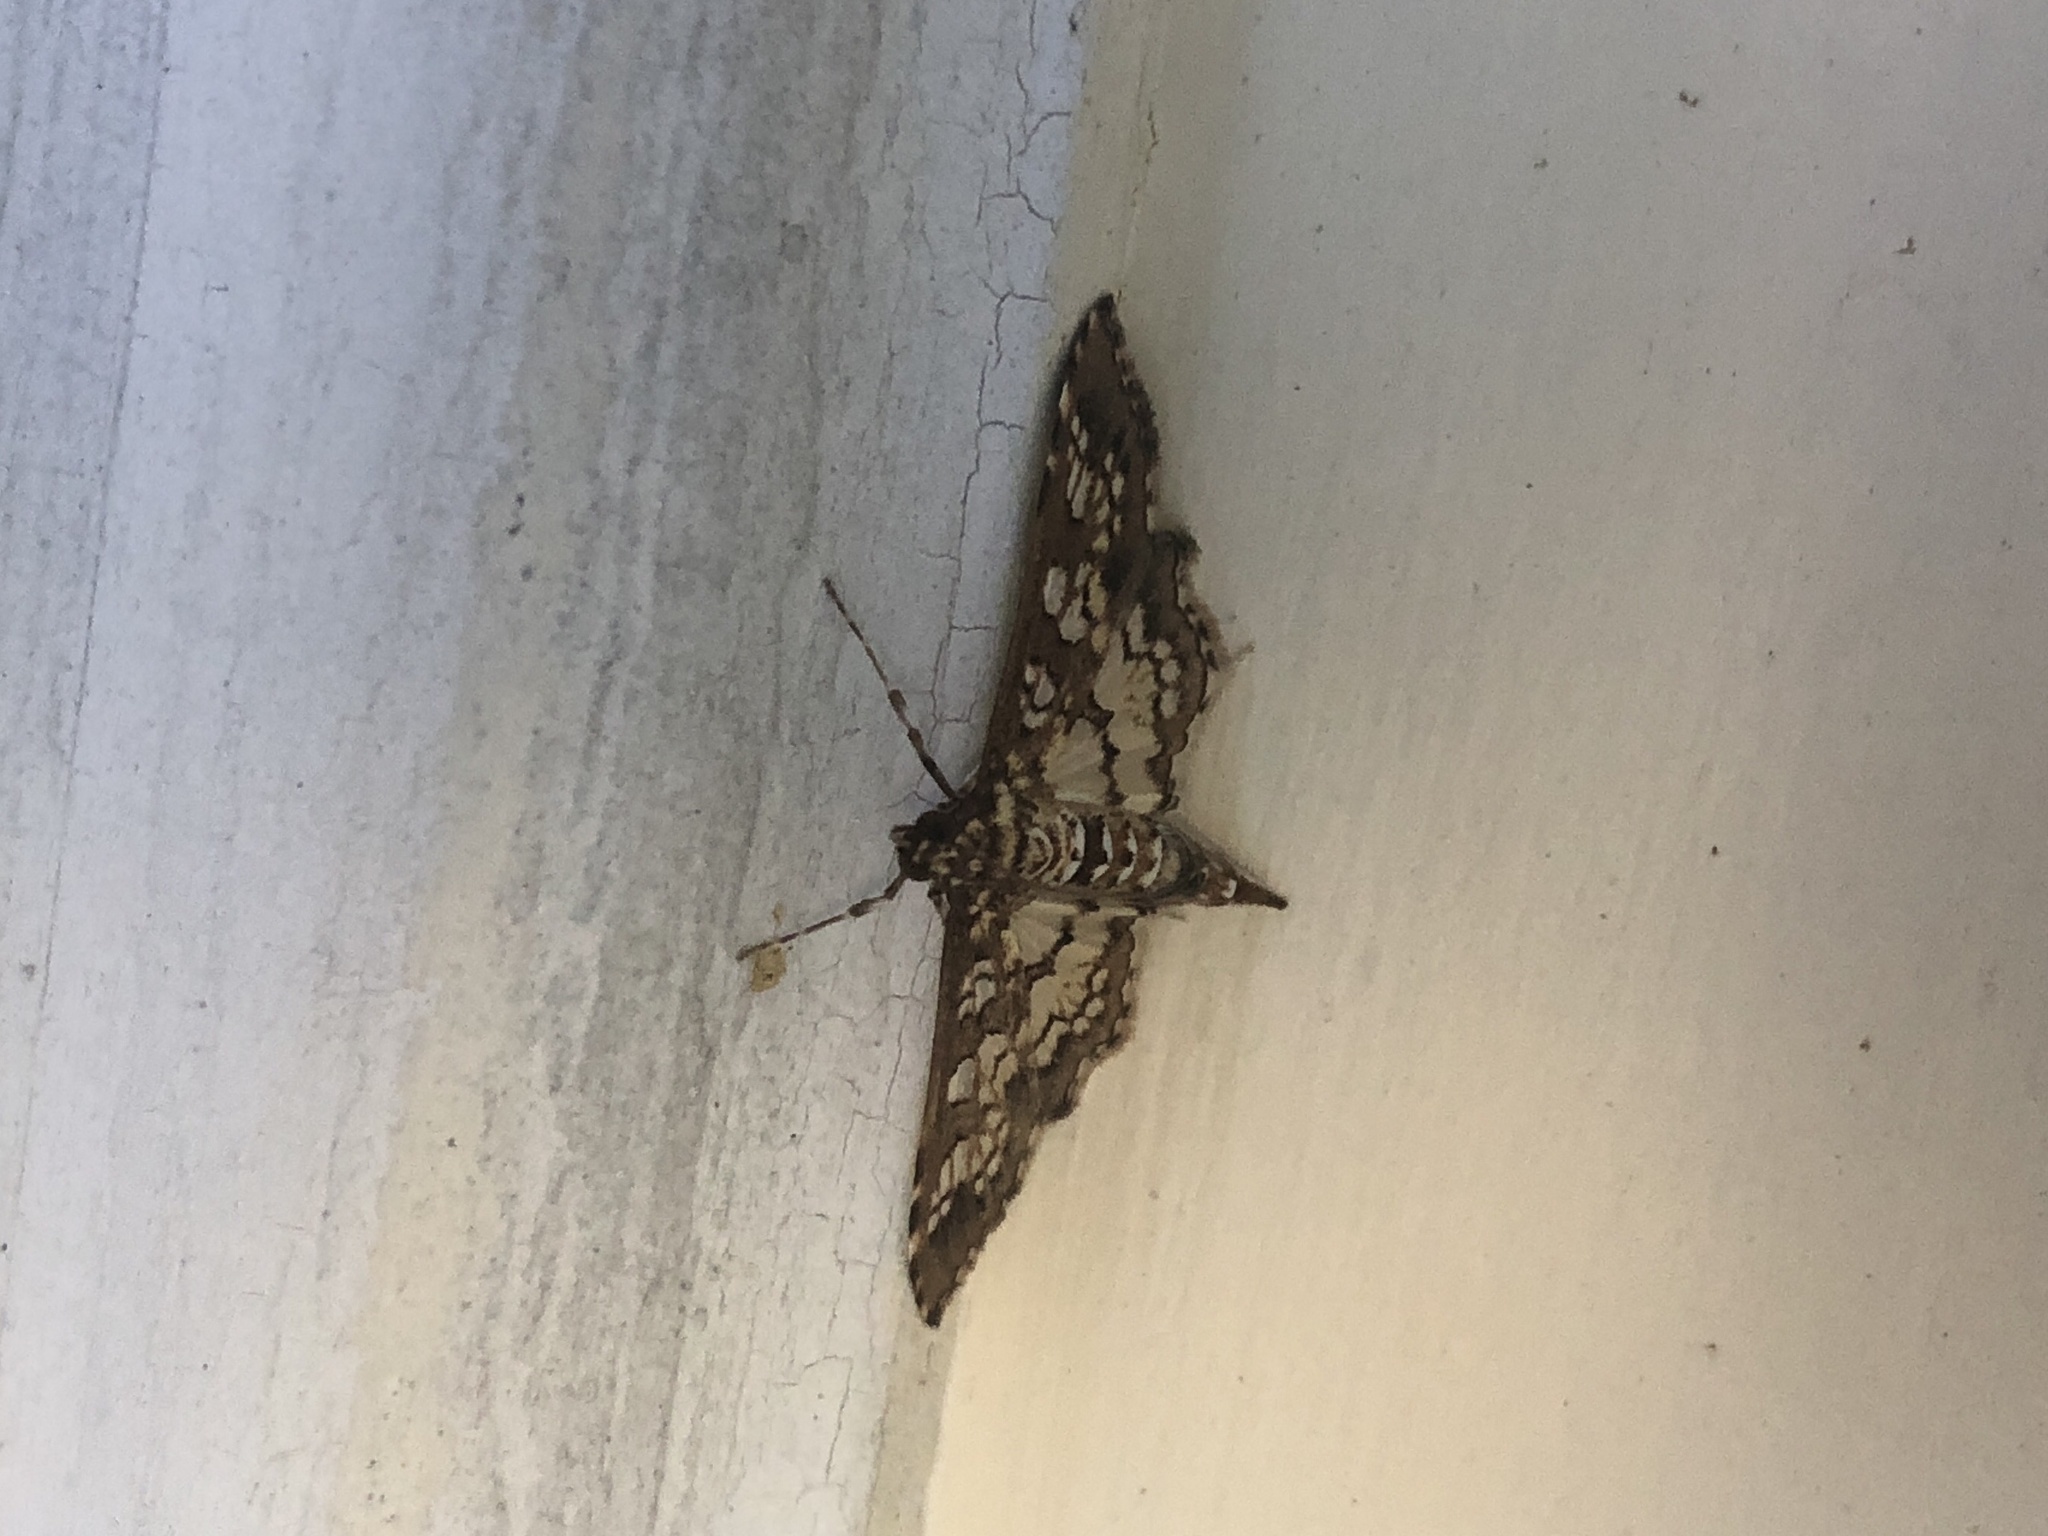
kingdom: Animalia
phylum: Arthropoda
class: Insecta
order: Lepidoptera
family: Crambidae
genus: Samea
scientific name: Samea ecclesialis
